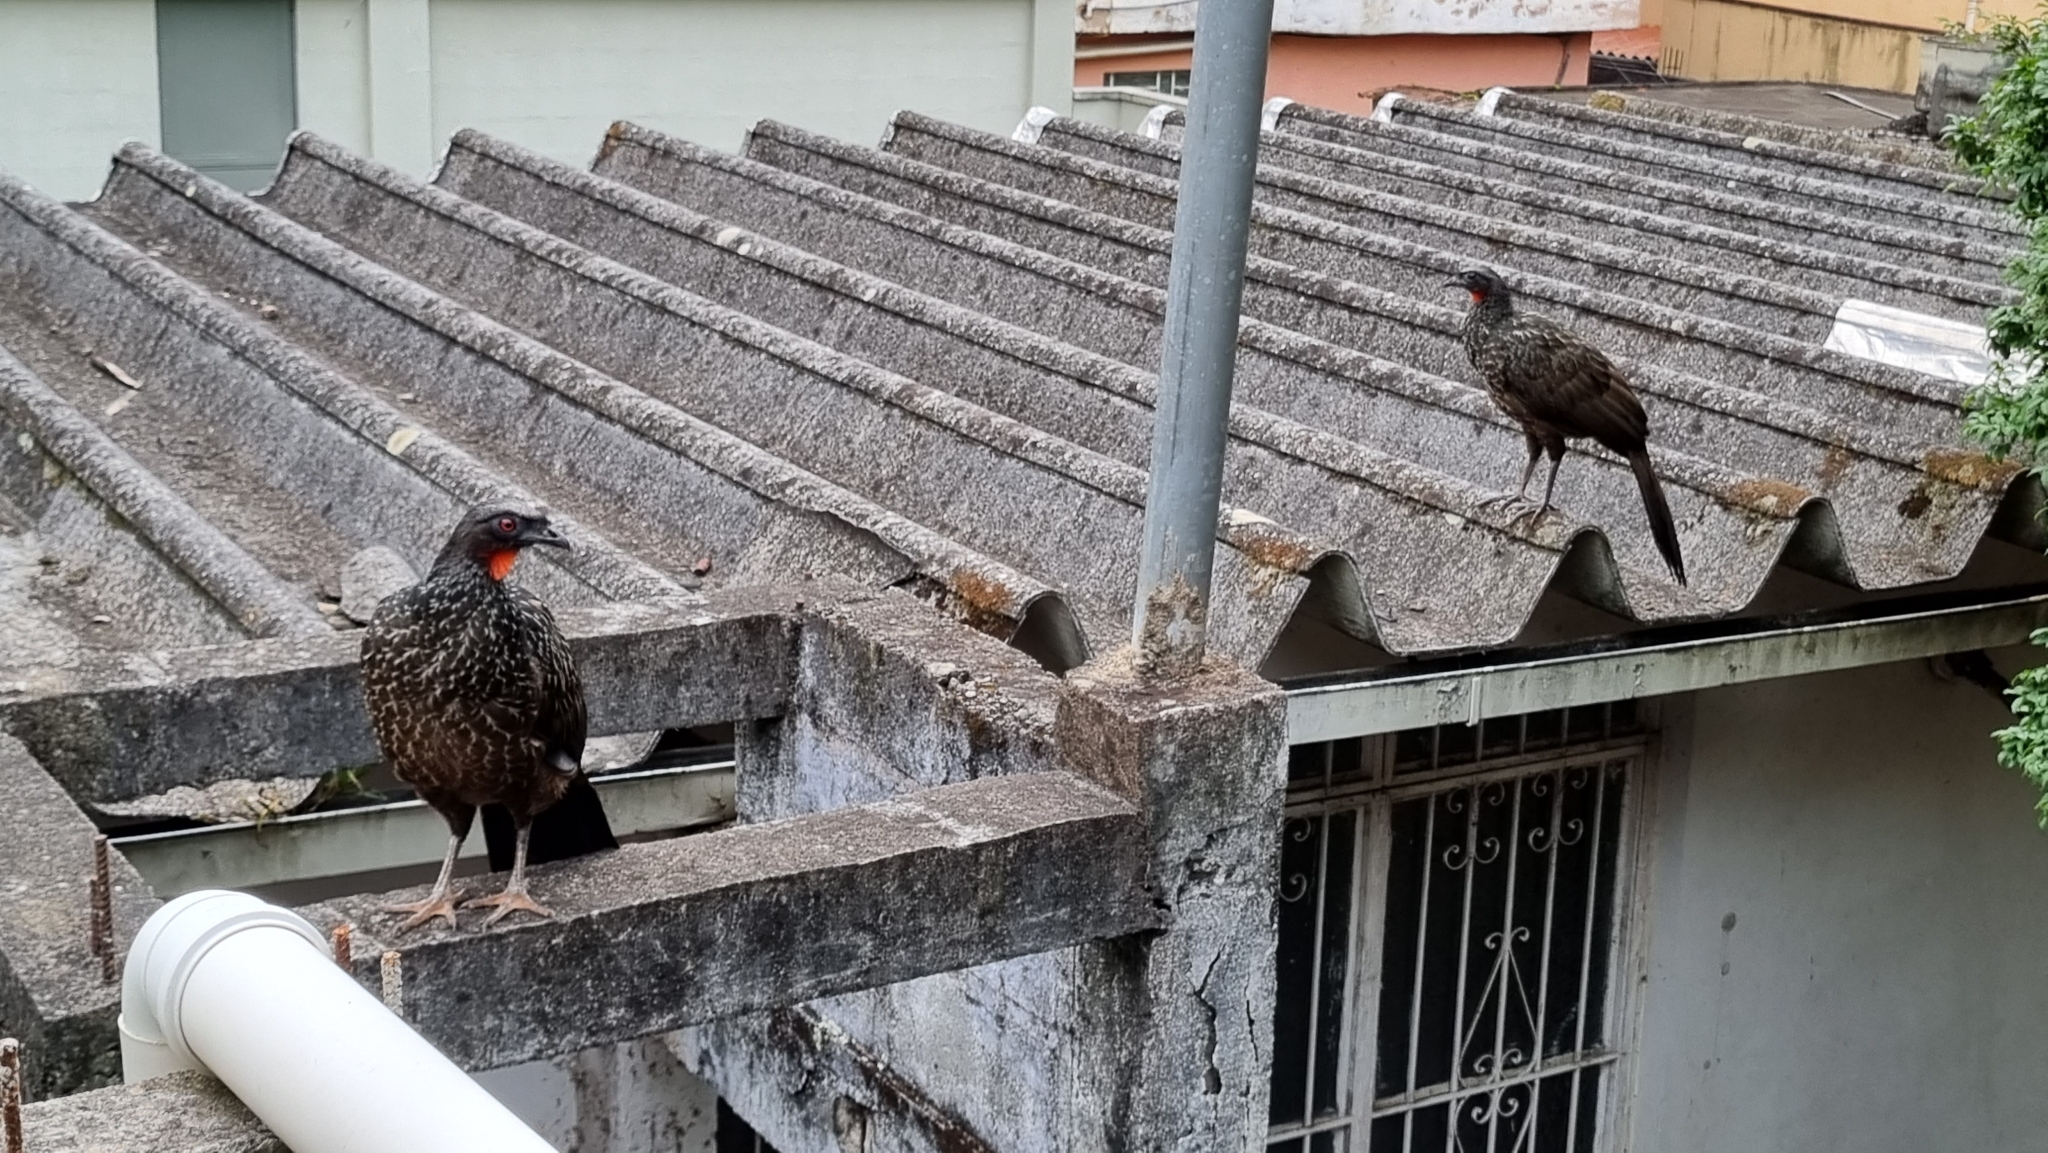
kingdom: Animalia
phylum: Chordata
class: Aves
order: Galliformes
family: Cracidae
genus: Penelope
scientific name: Penelope obscura
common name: Dusky-legged guan
